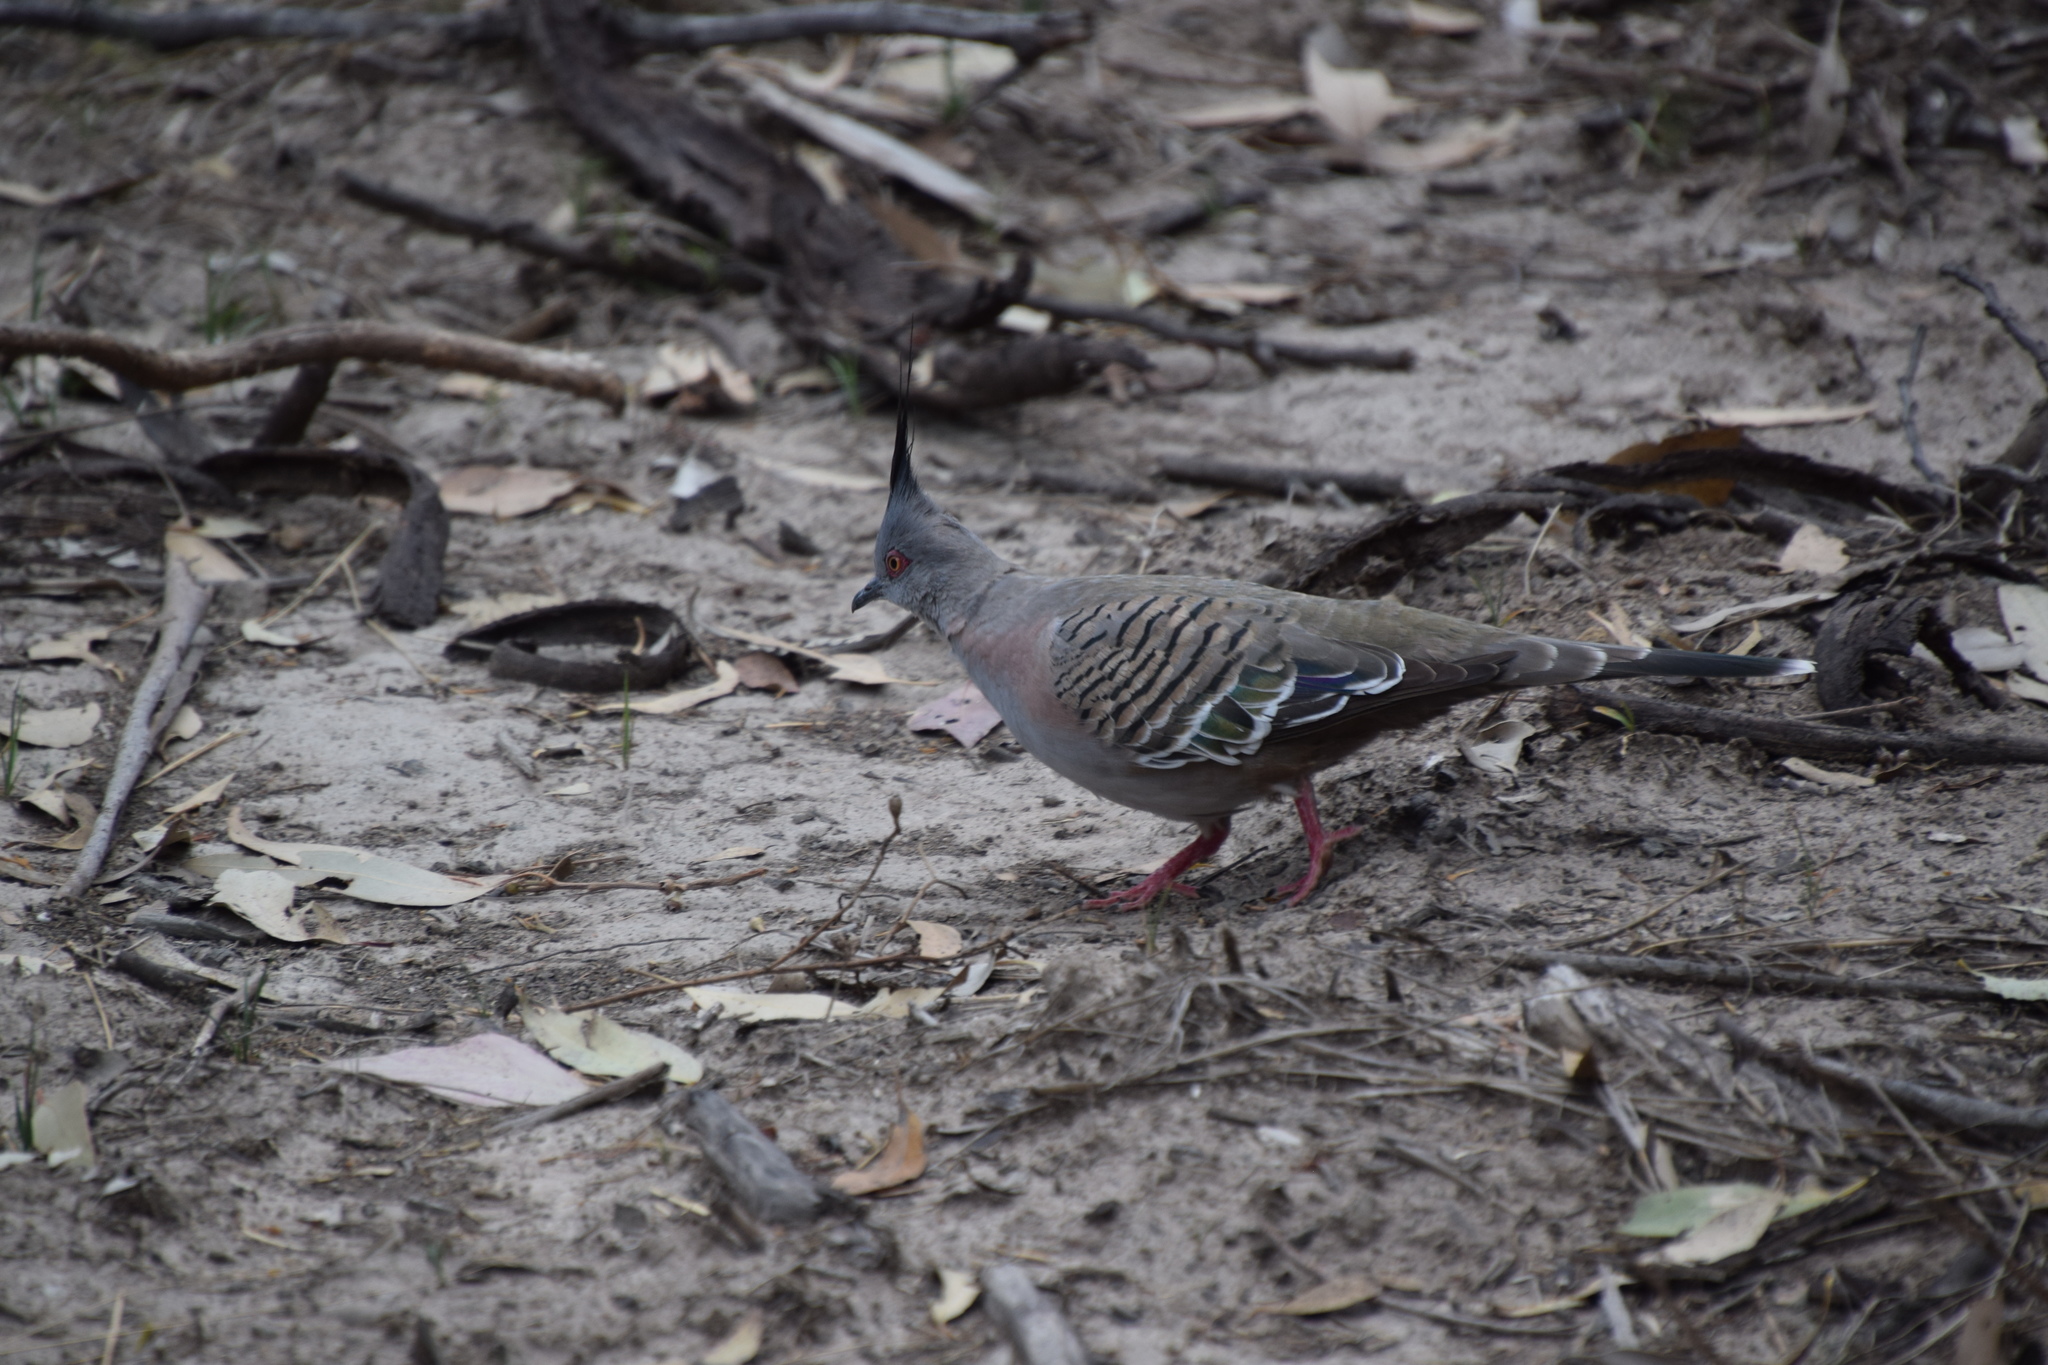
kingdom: Animalia
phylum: Chordata
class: Aves
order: Columbiformes
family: Columbidae
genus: Ocyphaps
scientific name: Ocyphaps lophotes
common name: Crested pigeon
